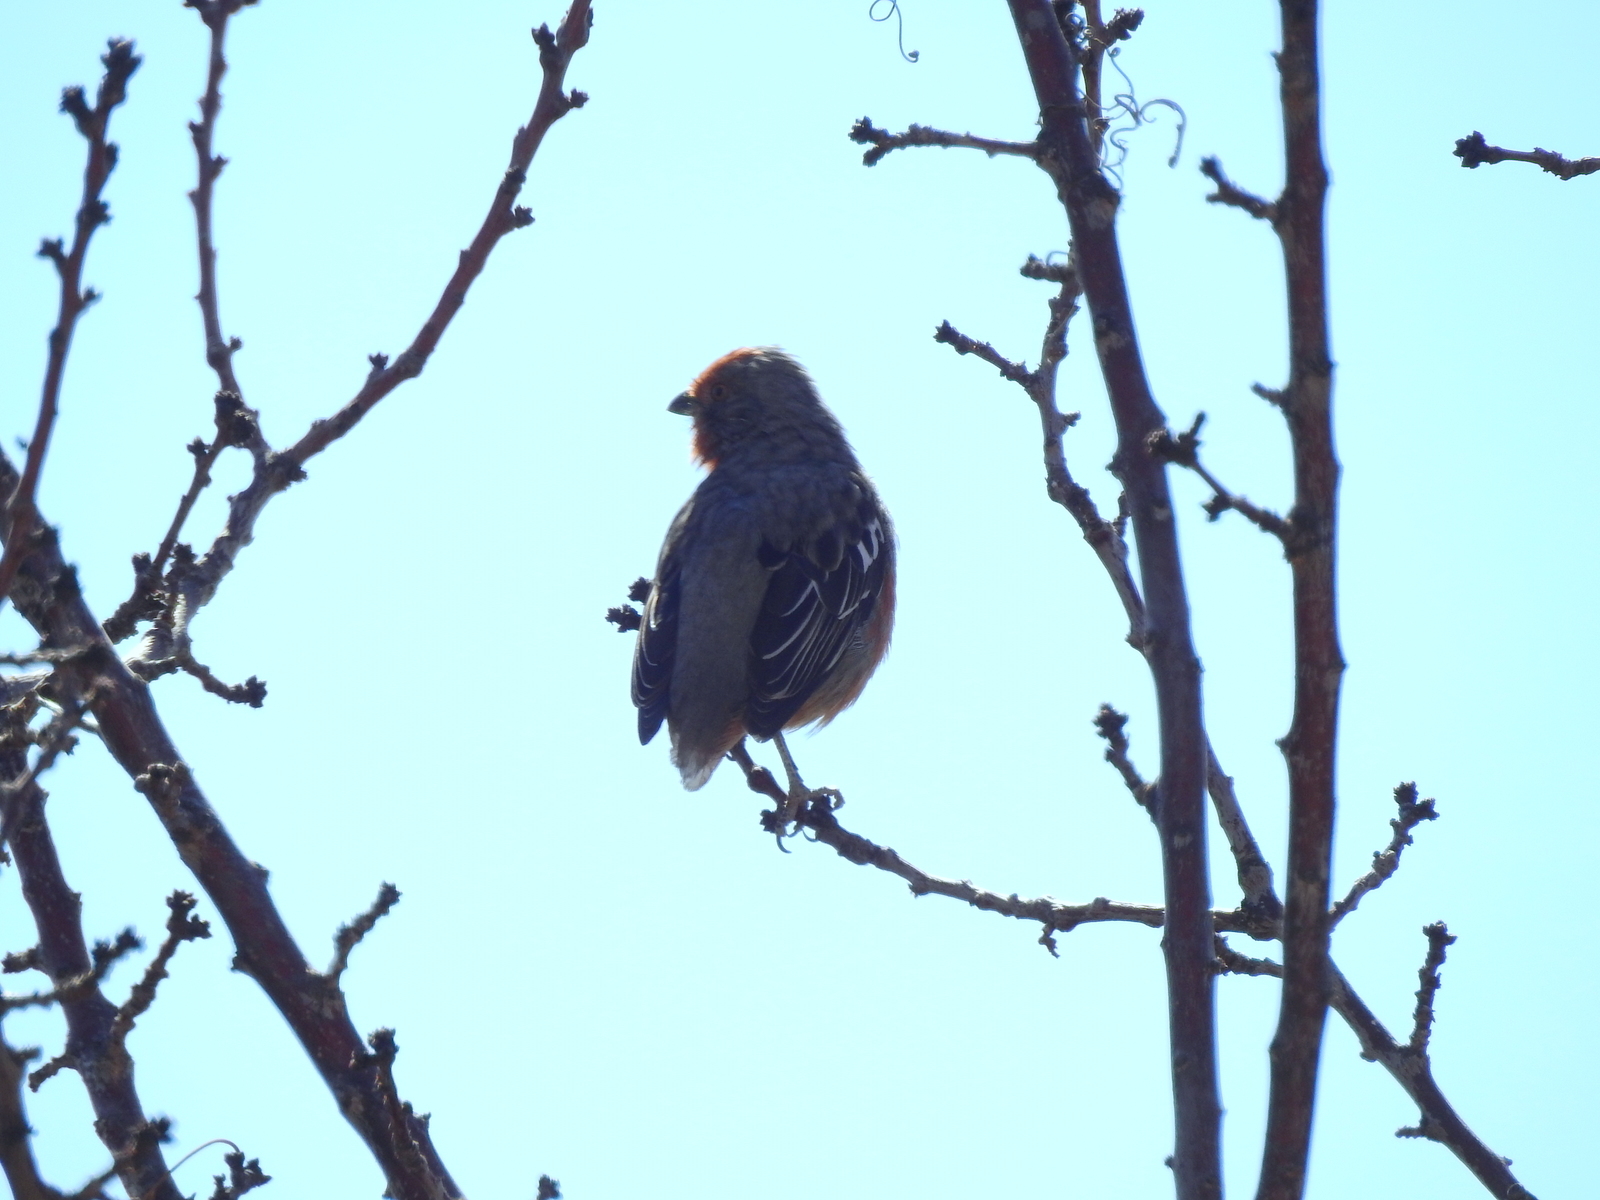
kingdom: Animalia
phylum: Chordata
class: Aves
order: Passeriformes
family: Cotingidae
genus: Phytotoma
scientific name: Phytotoma rutila
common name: White-tipped plantcutter
